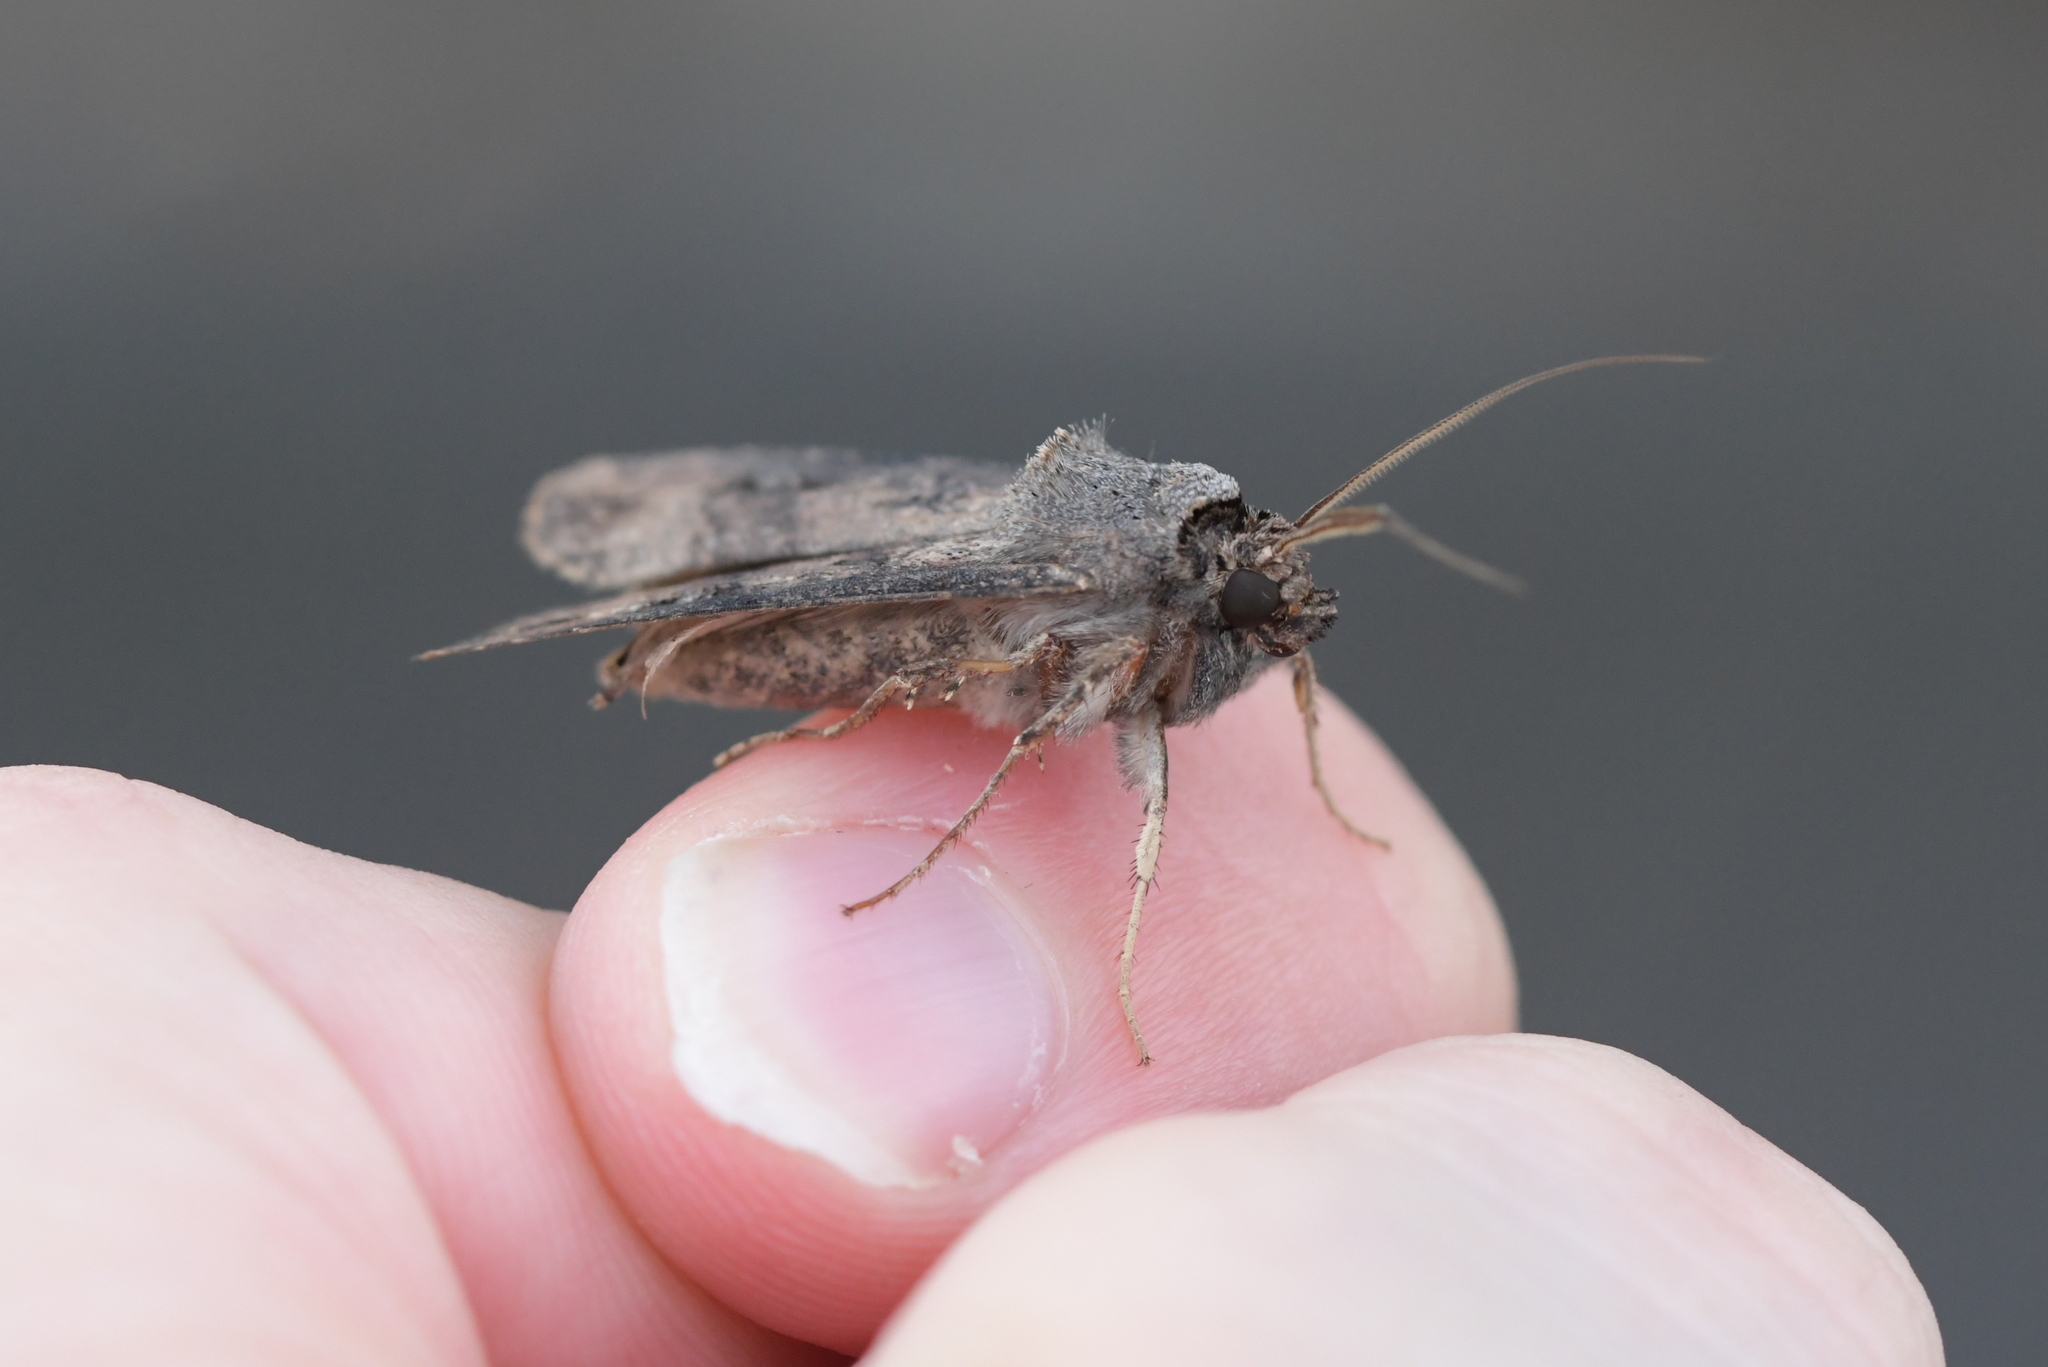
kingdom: Animalia
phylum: Arthropoda
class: Insecta
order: Lepidoptera
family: Noctuidae
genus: Agrotis
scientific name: Agrotis ipsilon
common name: Dark sword-grass
